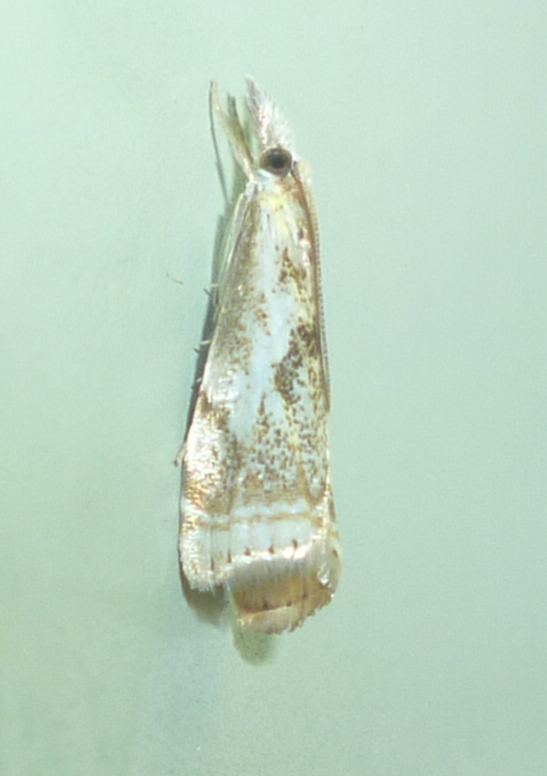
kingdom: Animalia
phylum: Arthropoda
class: Insecta
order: Lepidoptera
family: Crambidae
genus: Microcrambus
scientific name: Microcrambus elegans
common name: Elegant grass-veneer
